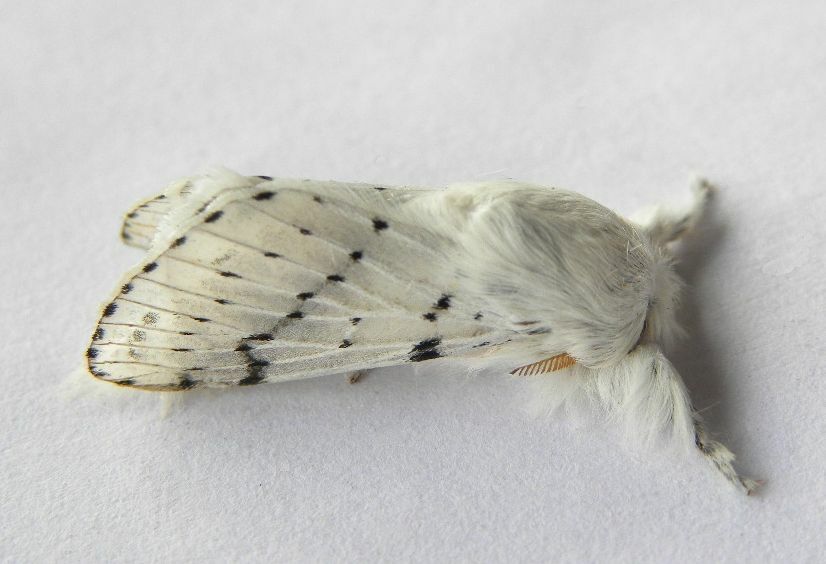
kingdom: Animalia
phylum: Arthropoda
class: Insecta
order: Lepidoptera
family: Lasiocampidae
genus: Artace
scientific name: Artace cribrarius
